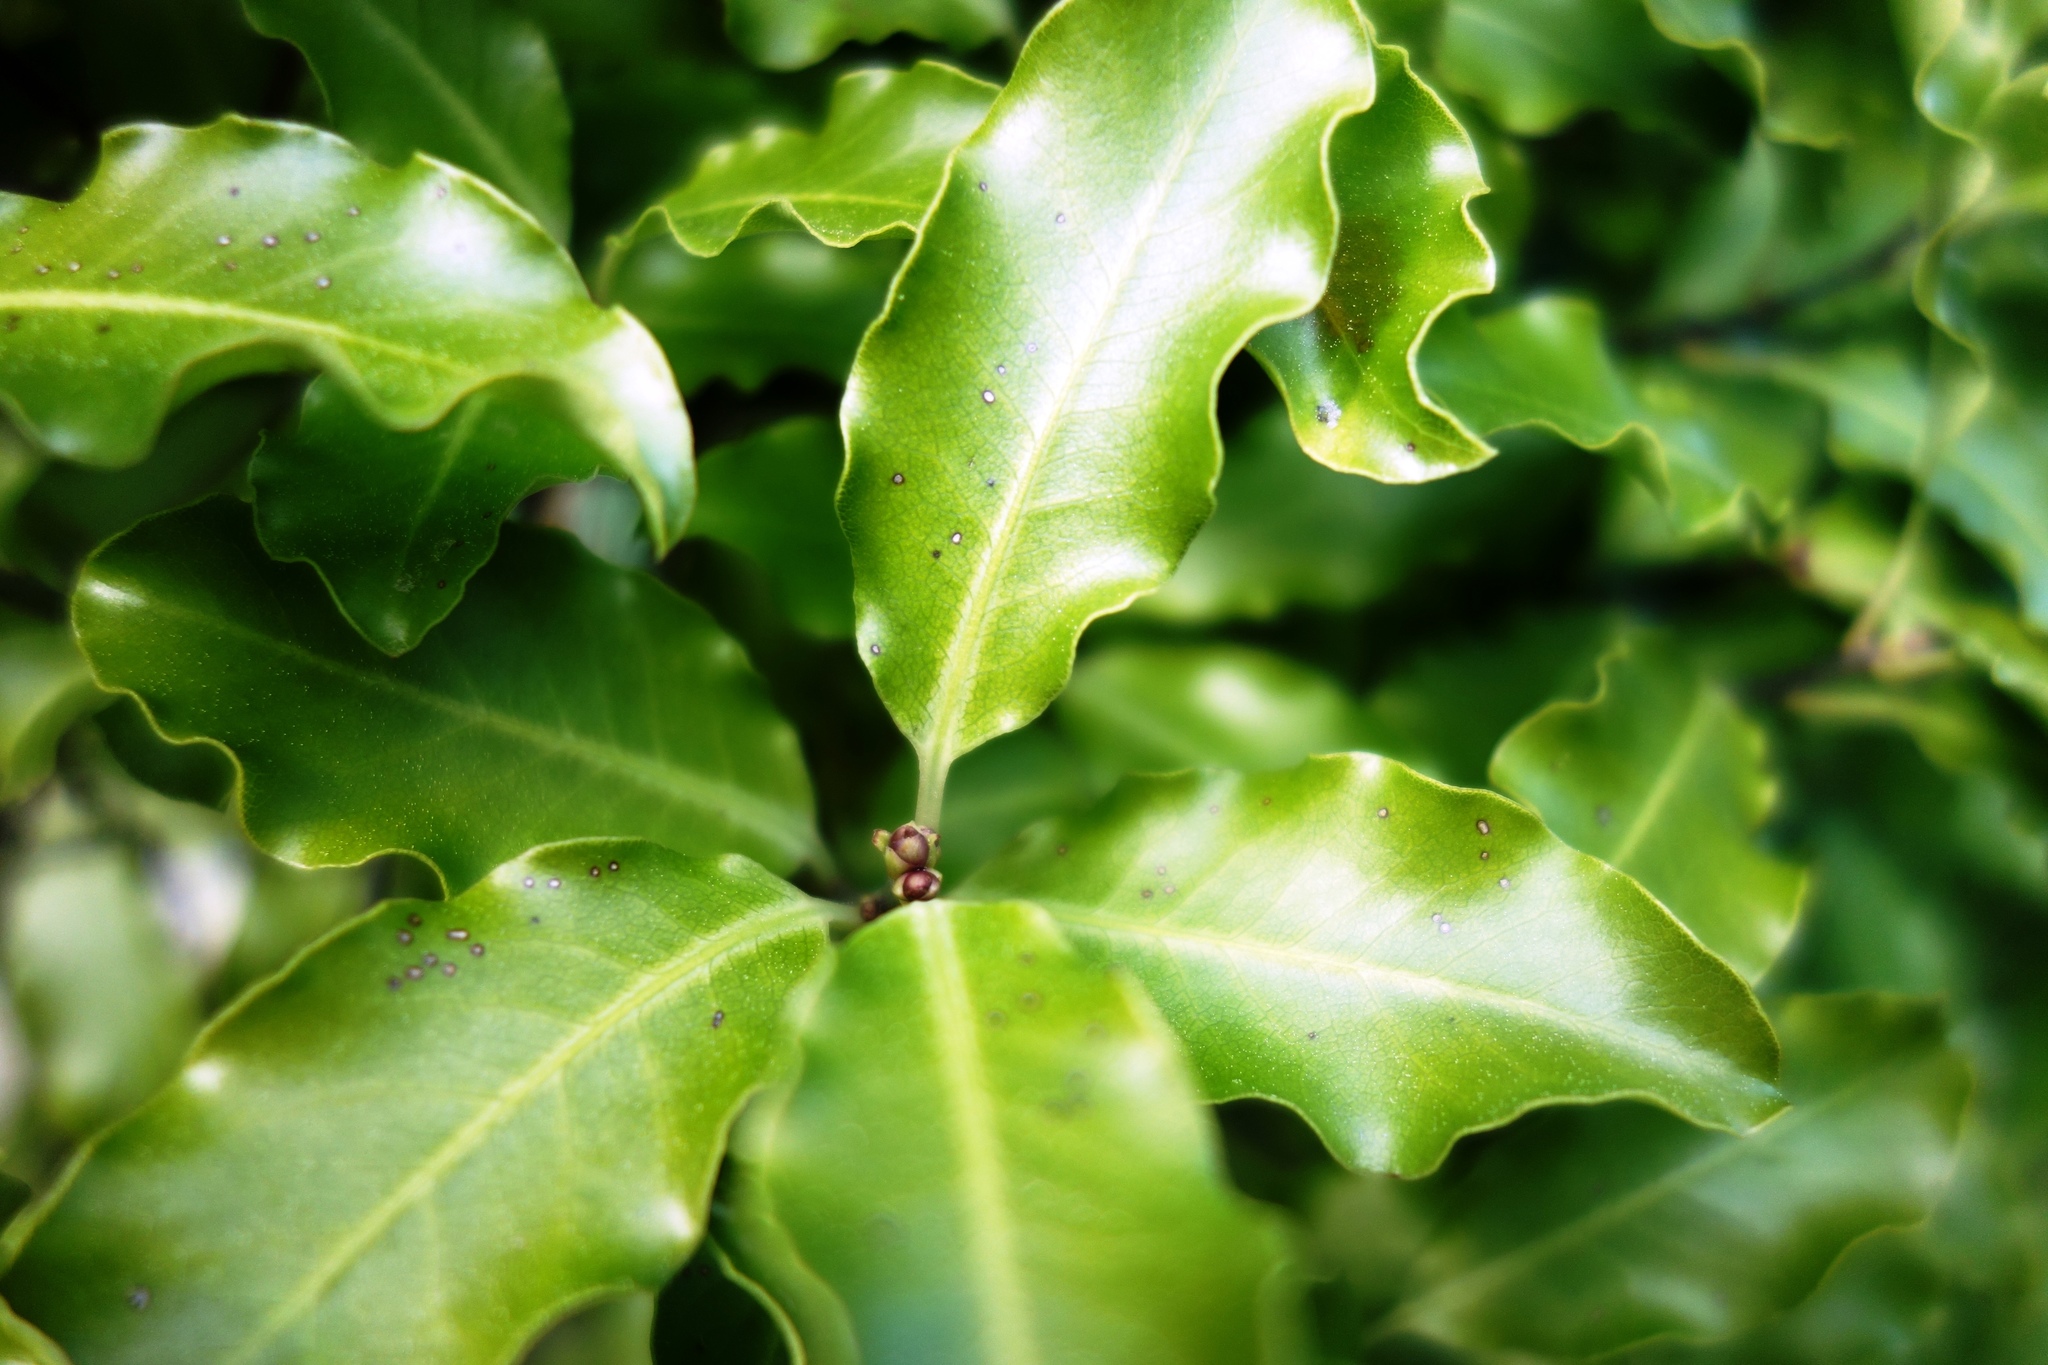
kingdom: Plantae
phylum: Tracheophyta
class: Magnoliopsida
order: Apiales
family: Pittosporaceae
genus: Pittosporum
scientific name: Pittosporum tenuifolium
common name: Kohuhu
